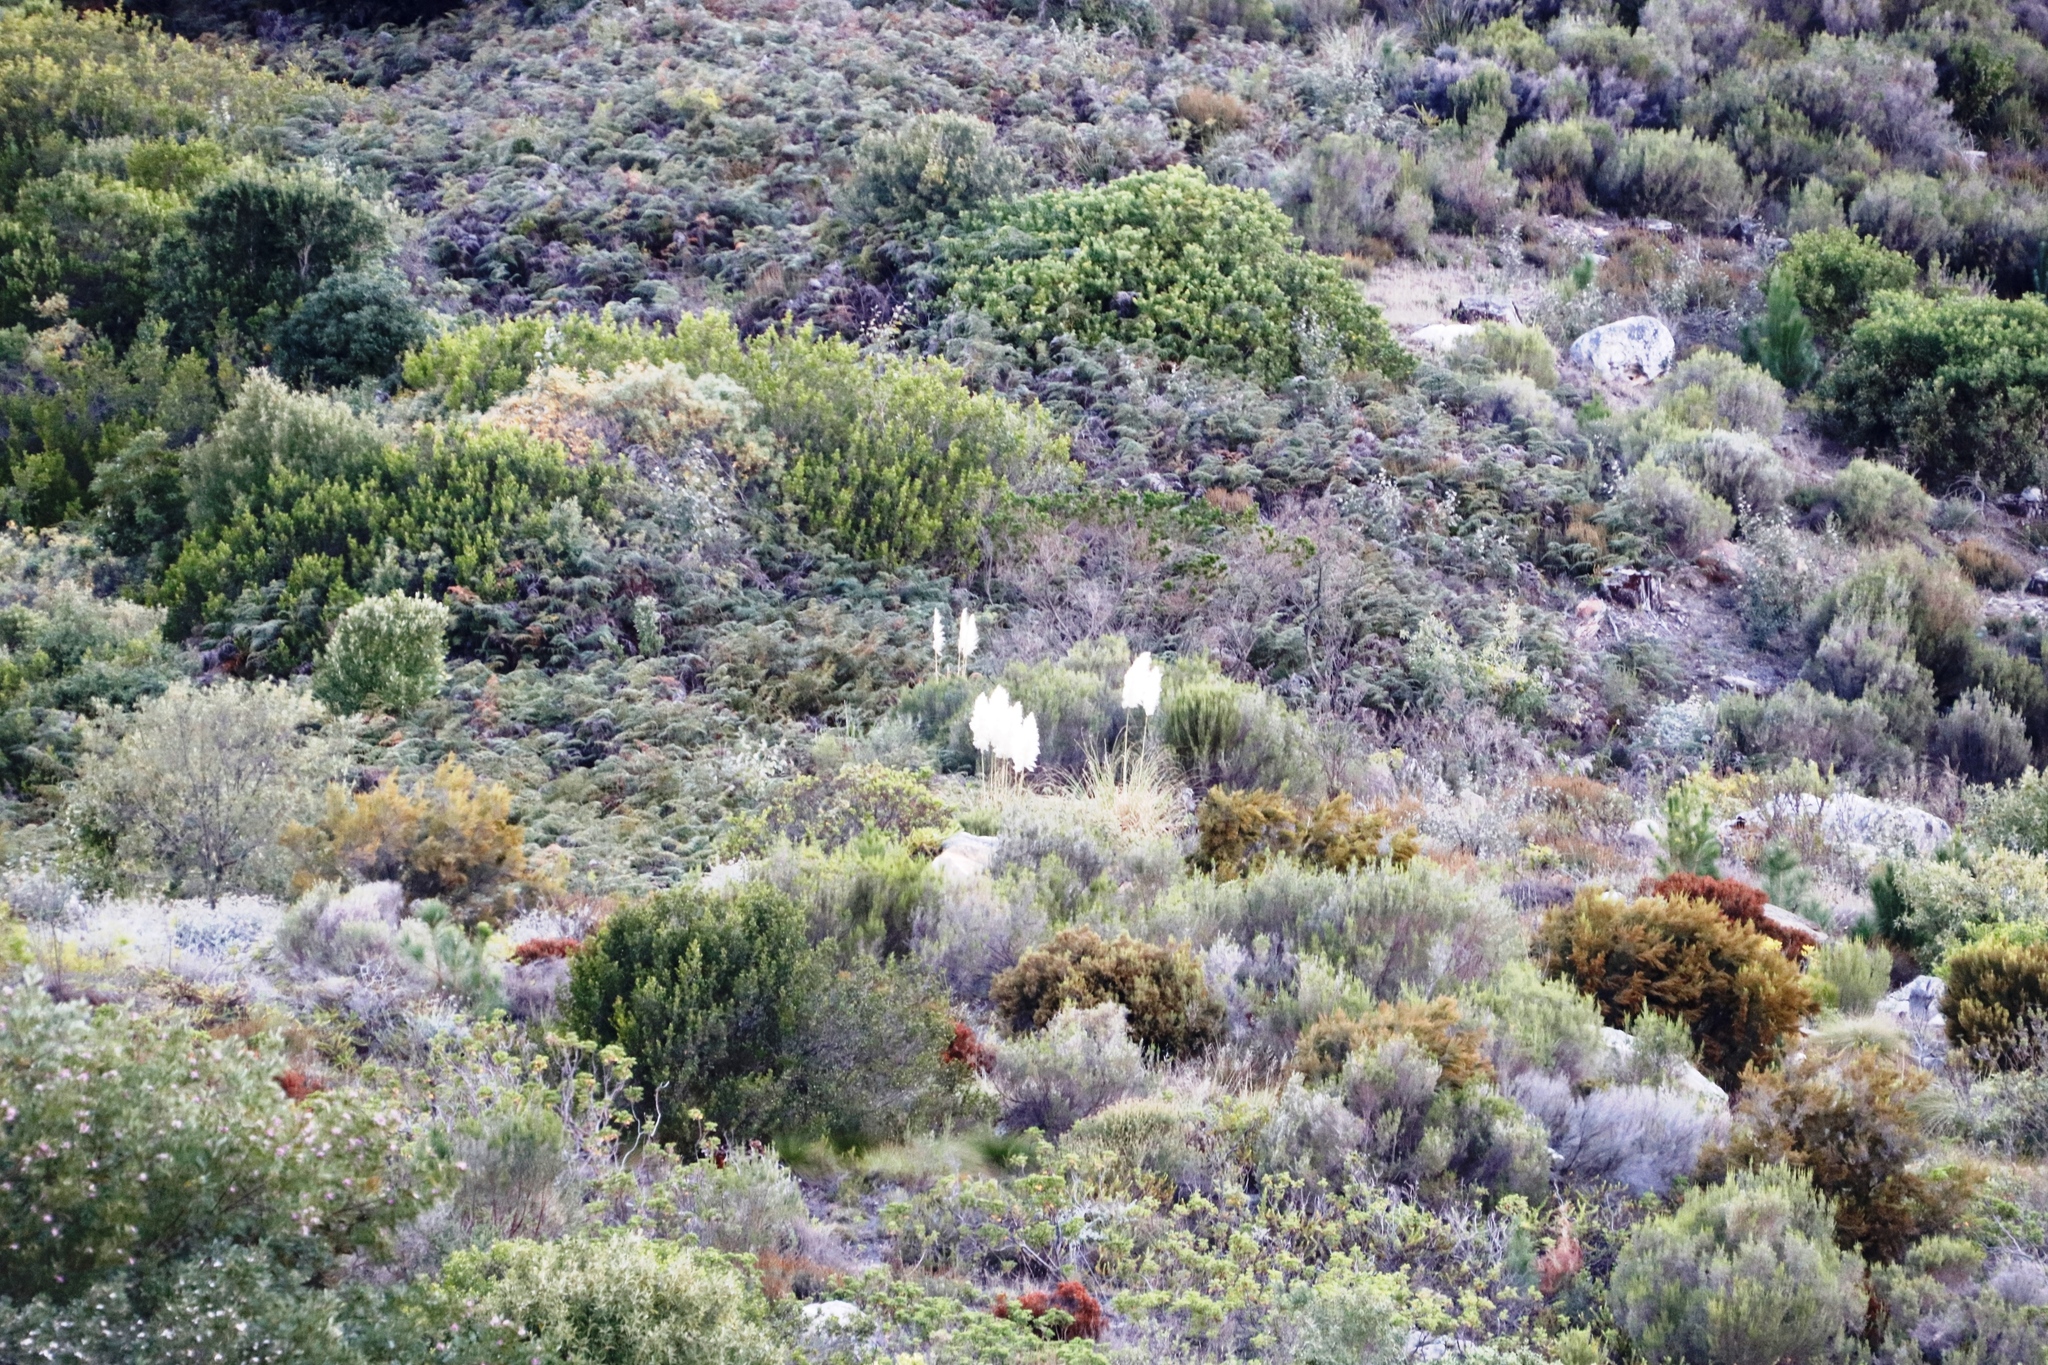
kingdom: Plantae
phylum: Tracheophyta
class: Liliopsida
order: Poales
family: Poaceae
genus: Cortaderia
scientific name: Cortaderia selloana
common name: Uruguayan pampas grass
